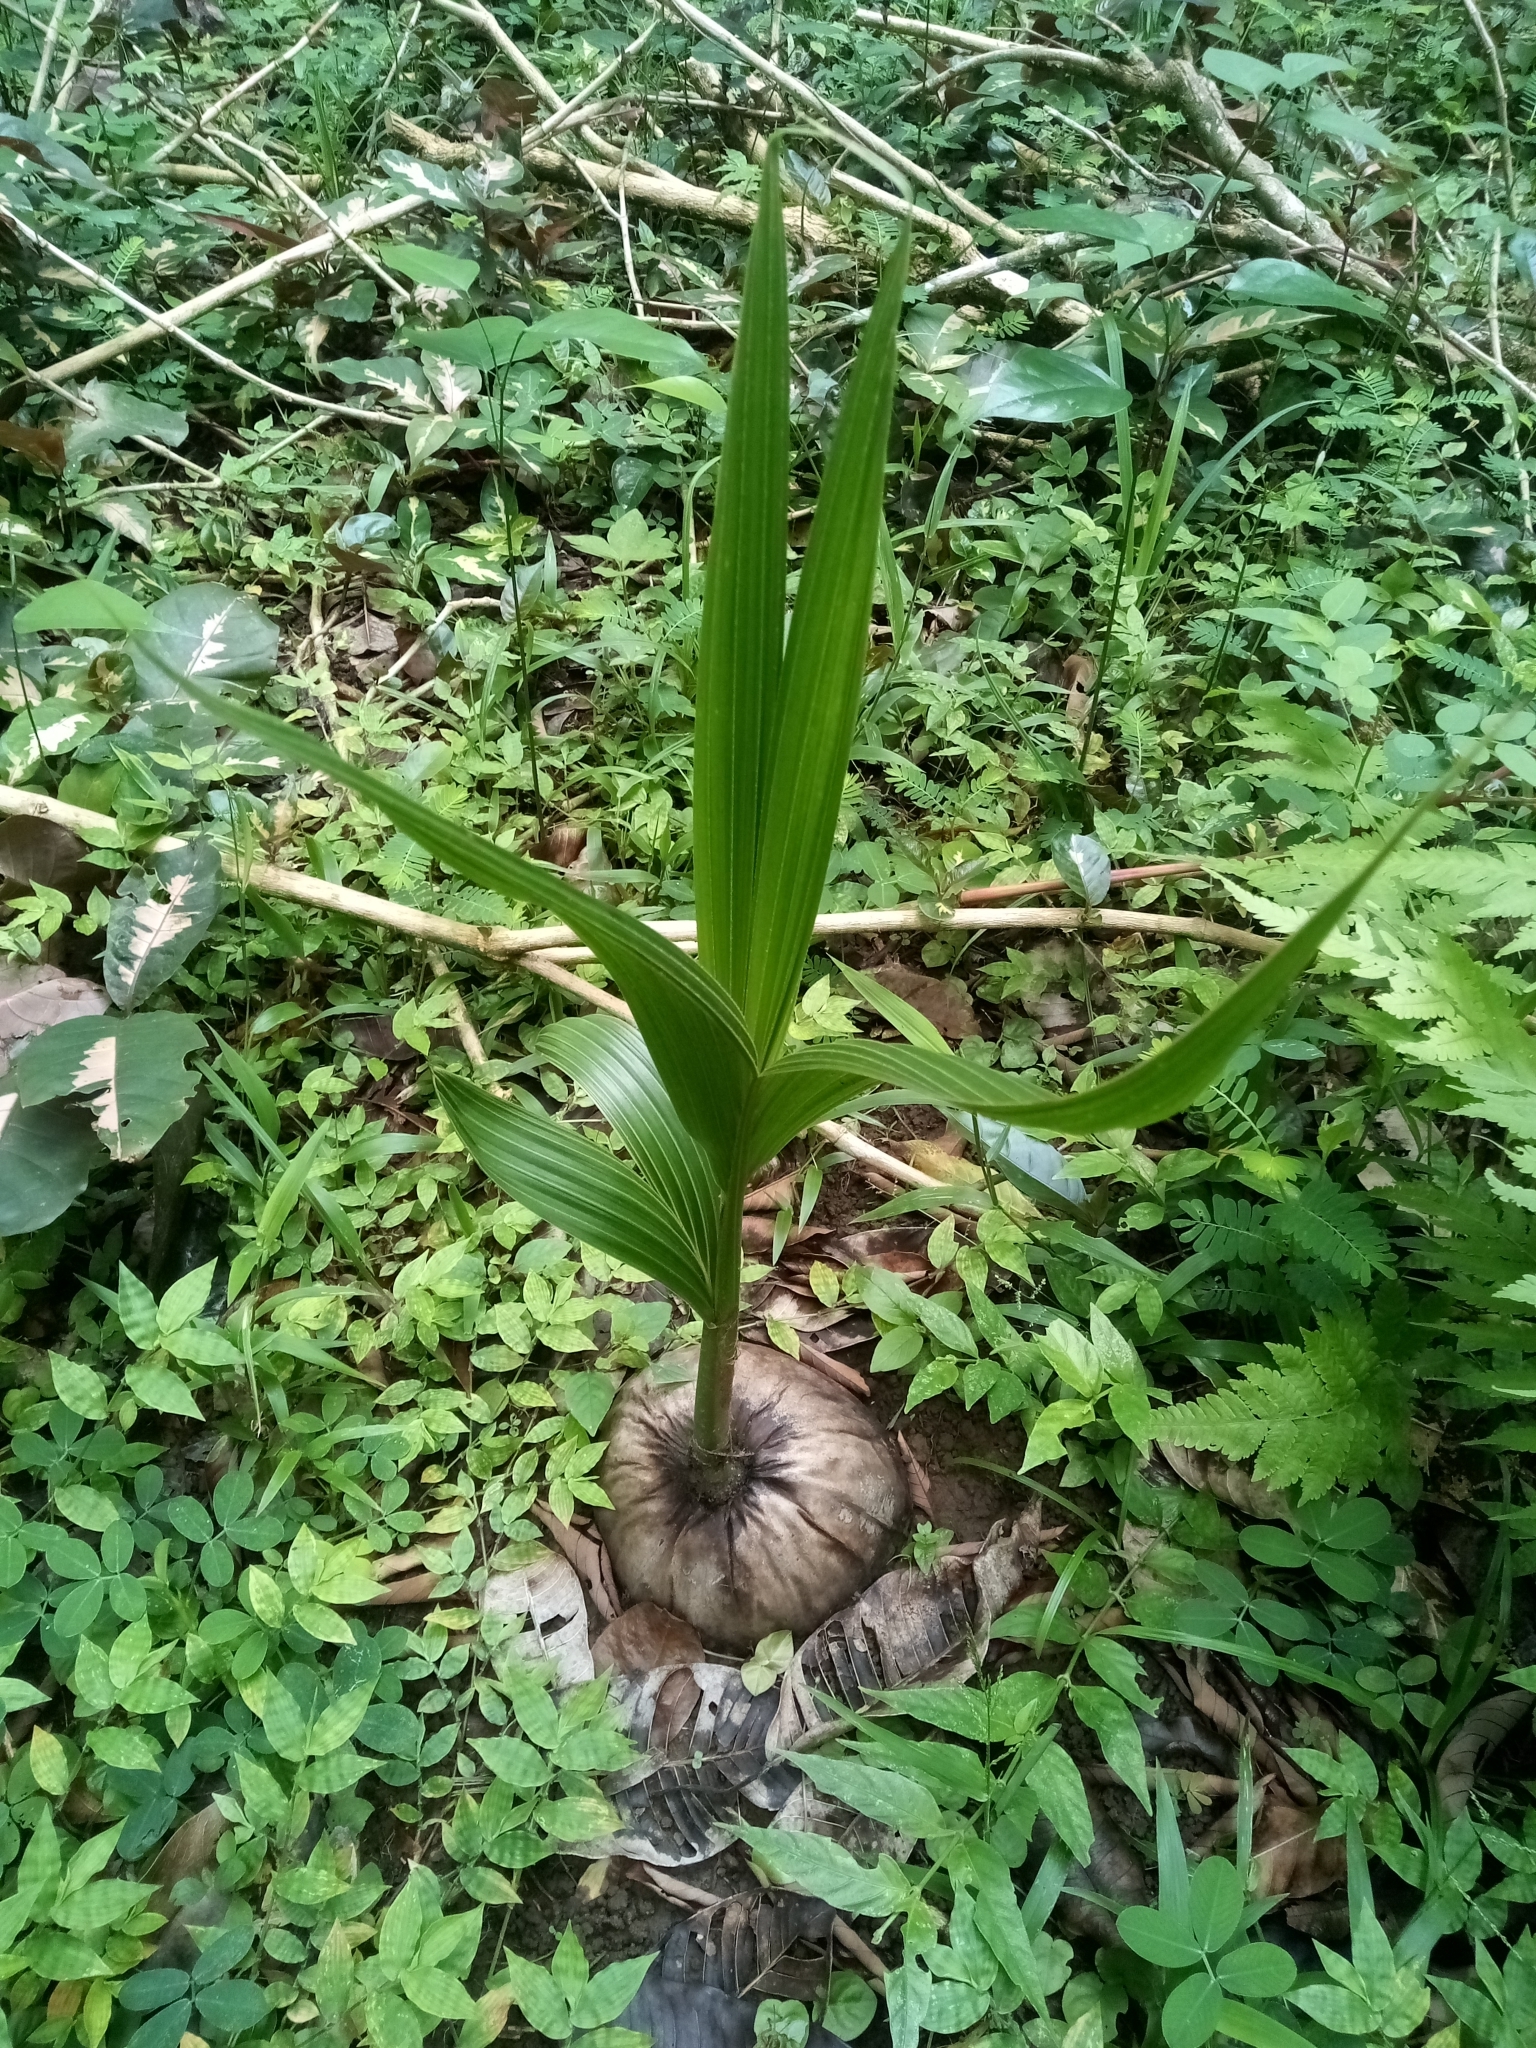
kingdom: Plantae
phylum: Tracheophyta
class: Liliopsida
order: Arecales
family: Arecaceae
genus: Cocos
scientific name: Cocos nucifera
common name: Coconut palm
